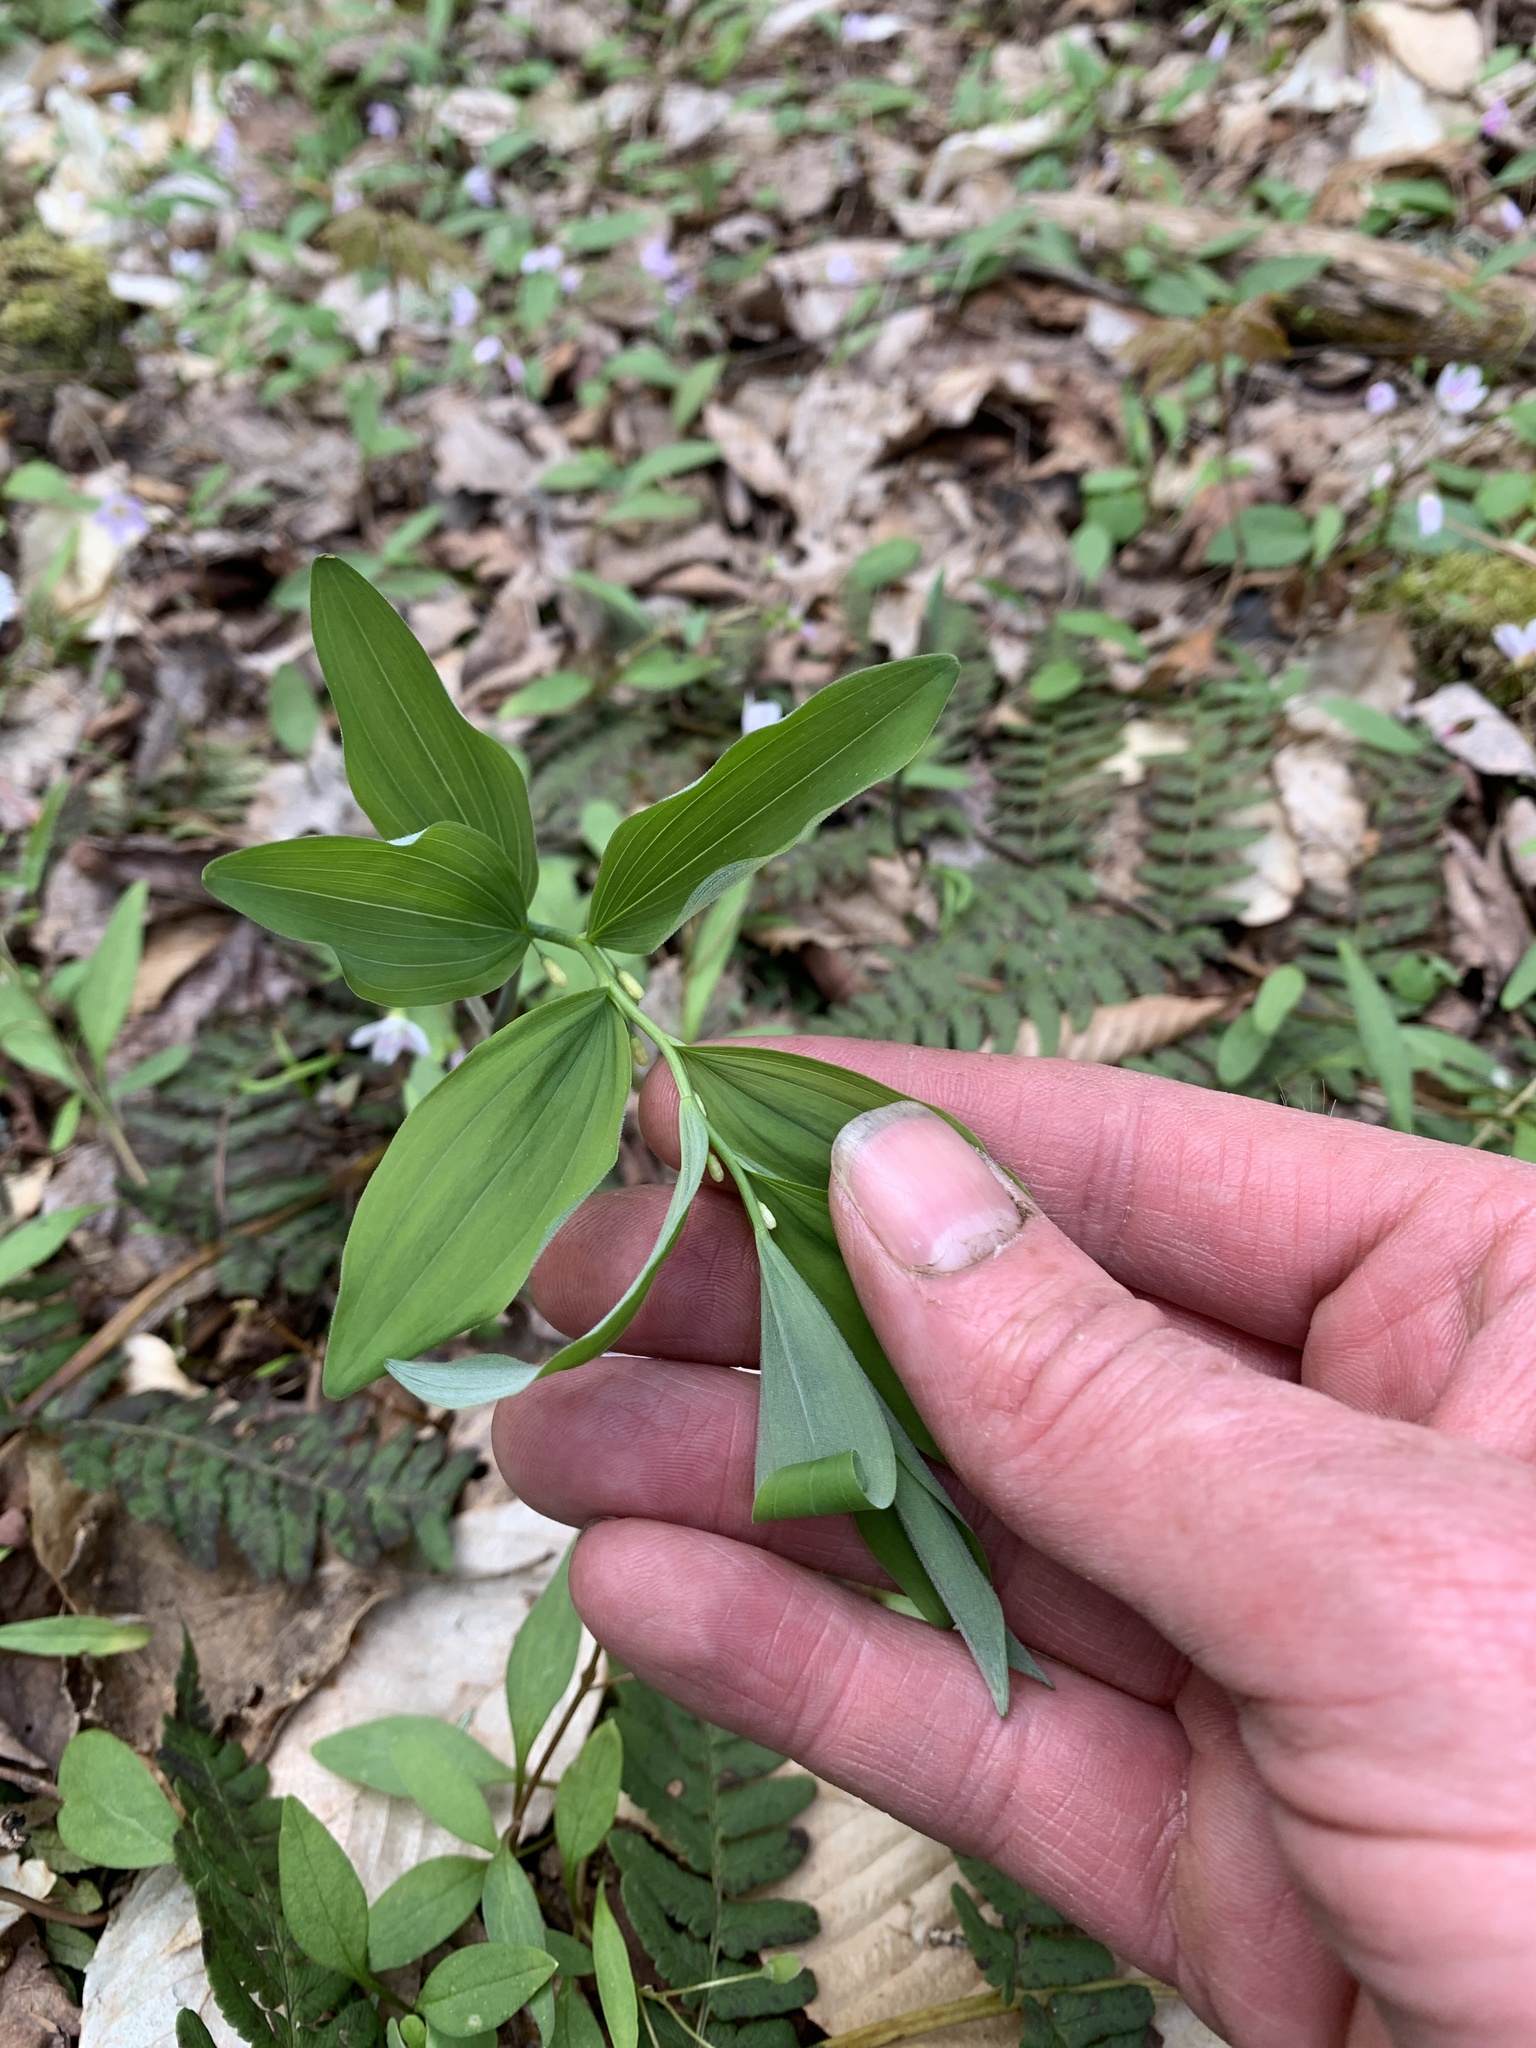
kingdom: Plantae
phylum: Tracheophyta
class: Liliopsida
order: Asparagales
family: Asparagaceae
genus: Polygonatum
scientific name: Polygonatum pubescens
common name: Downy solomon's seal
